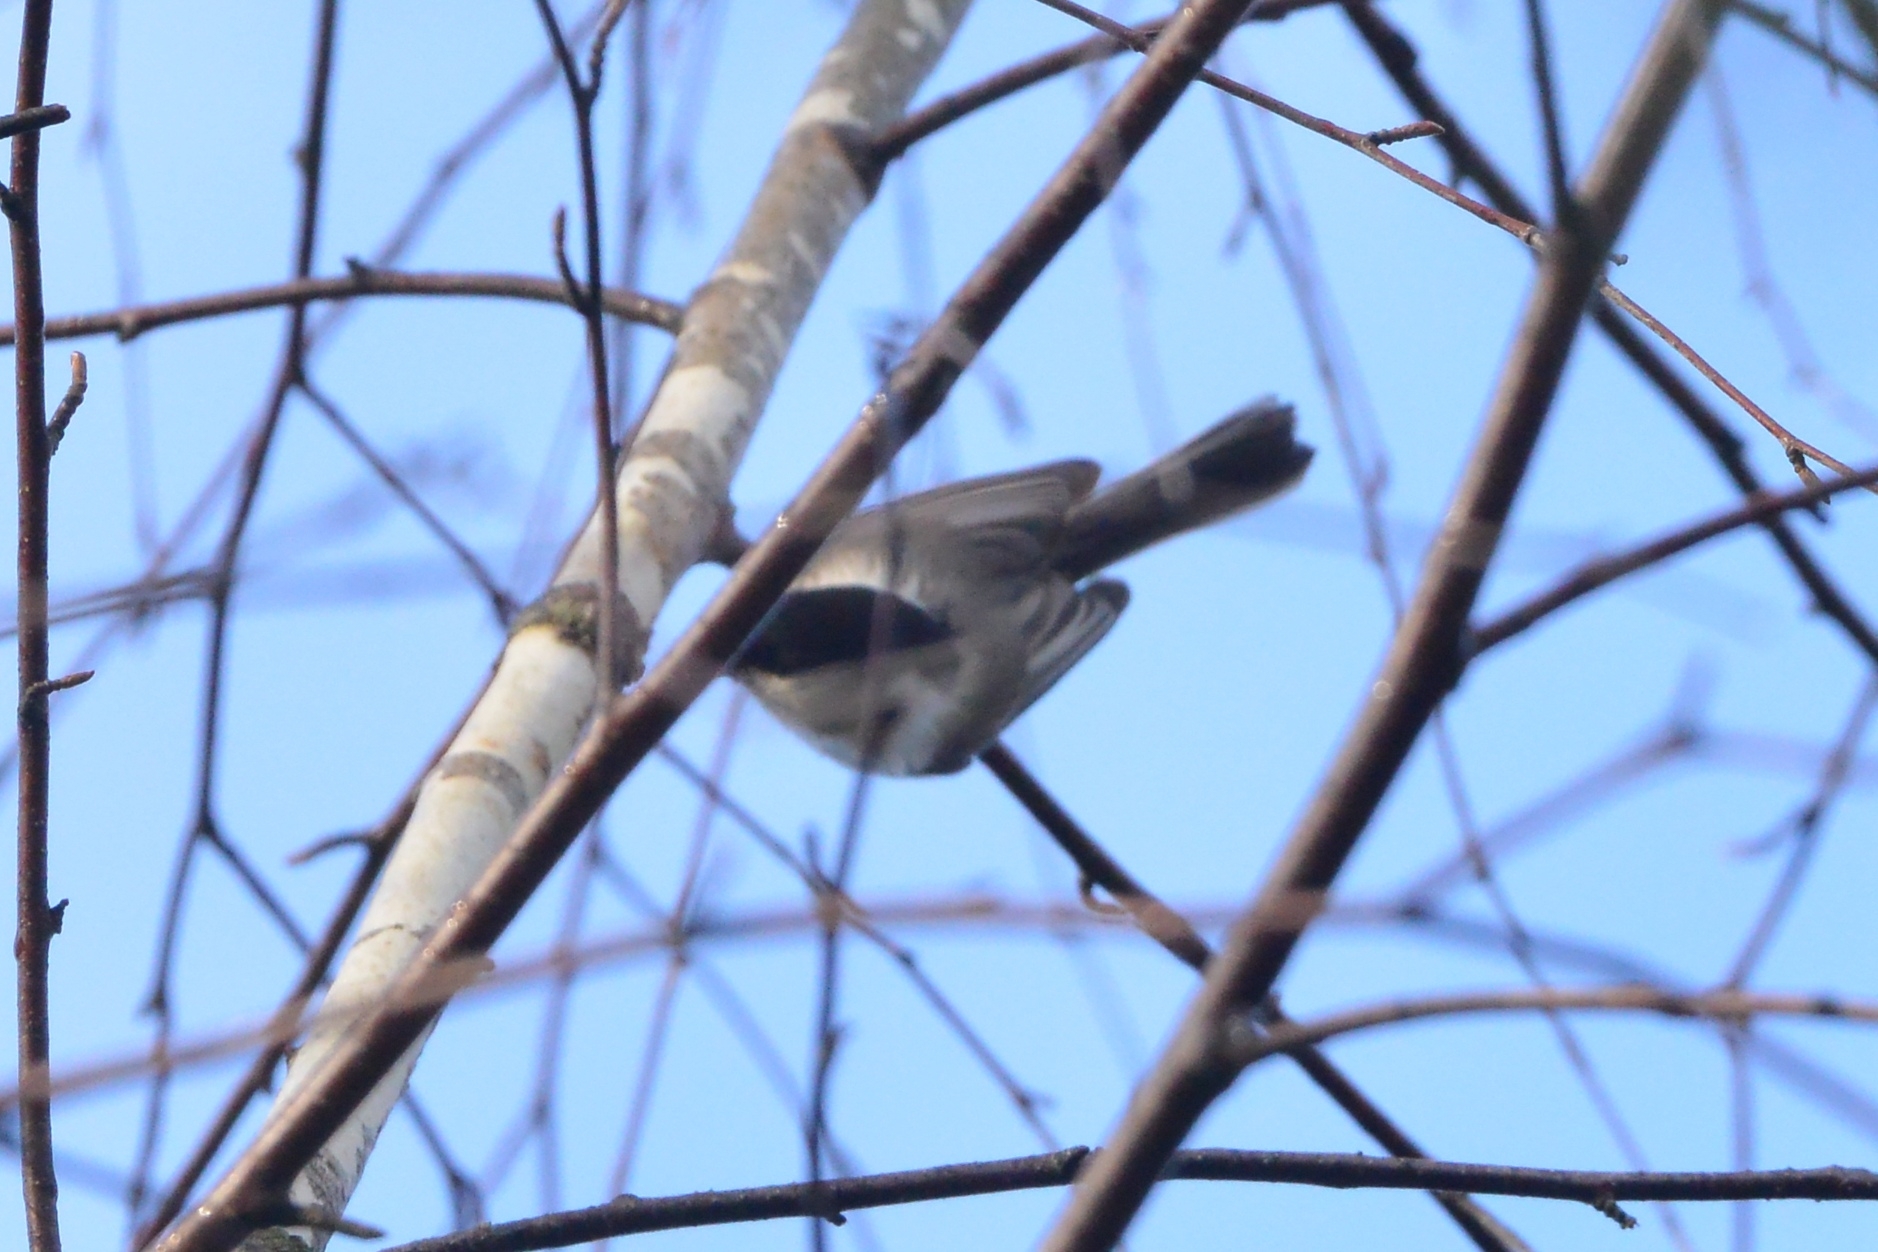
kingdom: Animalia
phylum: Chordata
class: Aves
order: Passeriformes
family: Paridae
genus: Poecile
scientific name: Poecile montanus
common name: Willow tit
